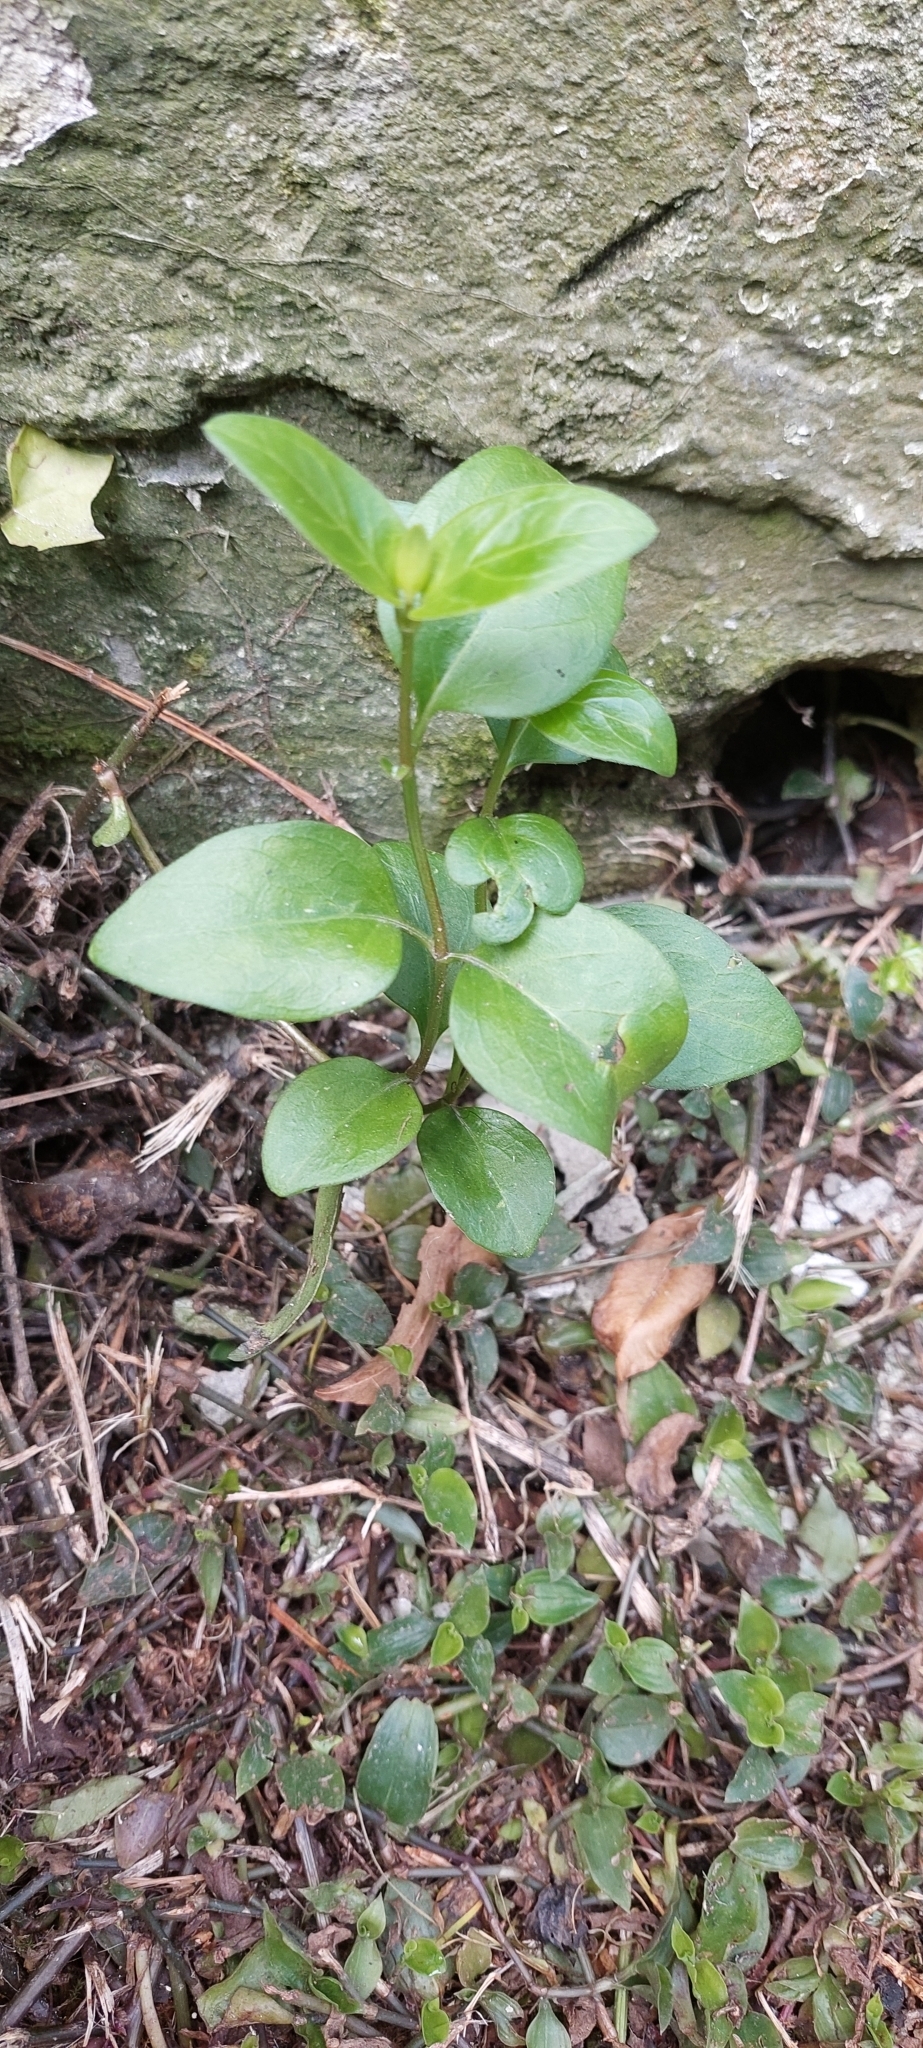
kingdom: Plantae
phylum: Tracheophyta
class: Magnoliopsida
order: Gentianales
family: Apocynaceae
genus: Vinca
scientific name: Vinca major
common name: Greater periwinkle
